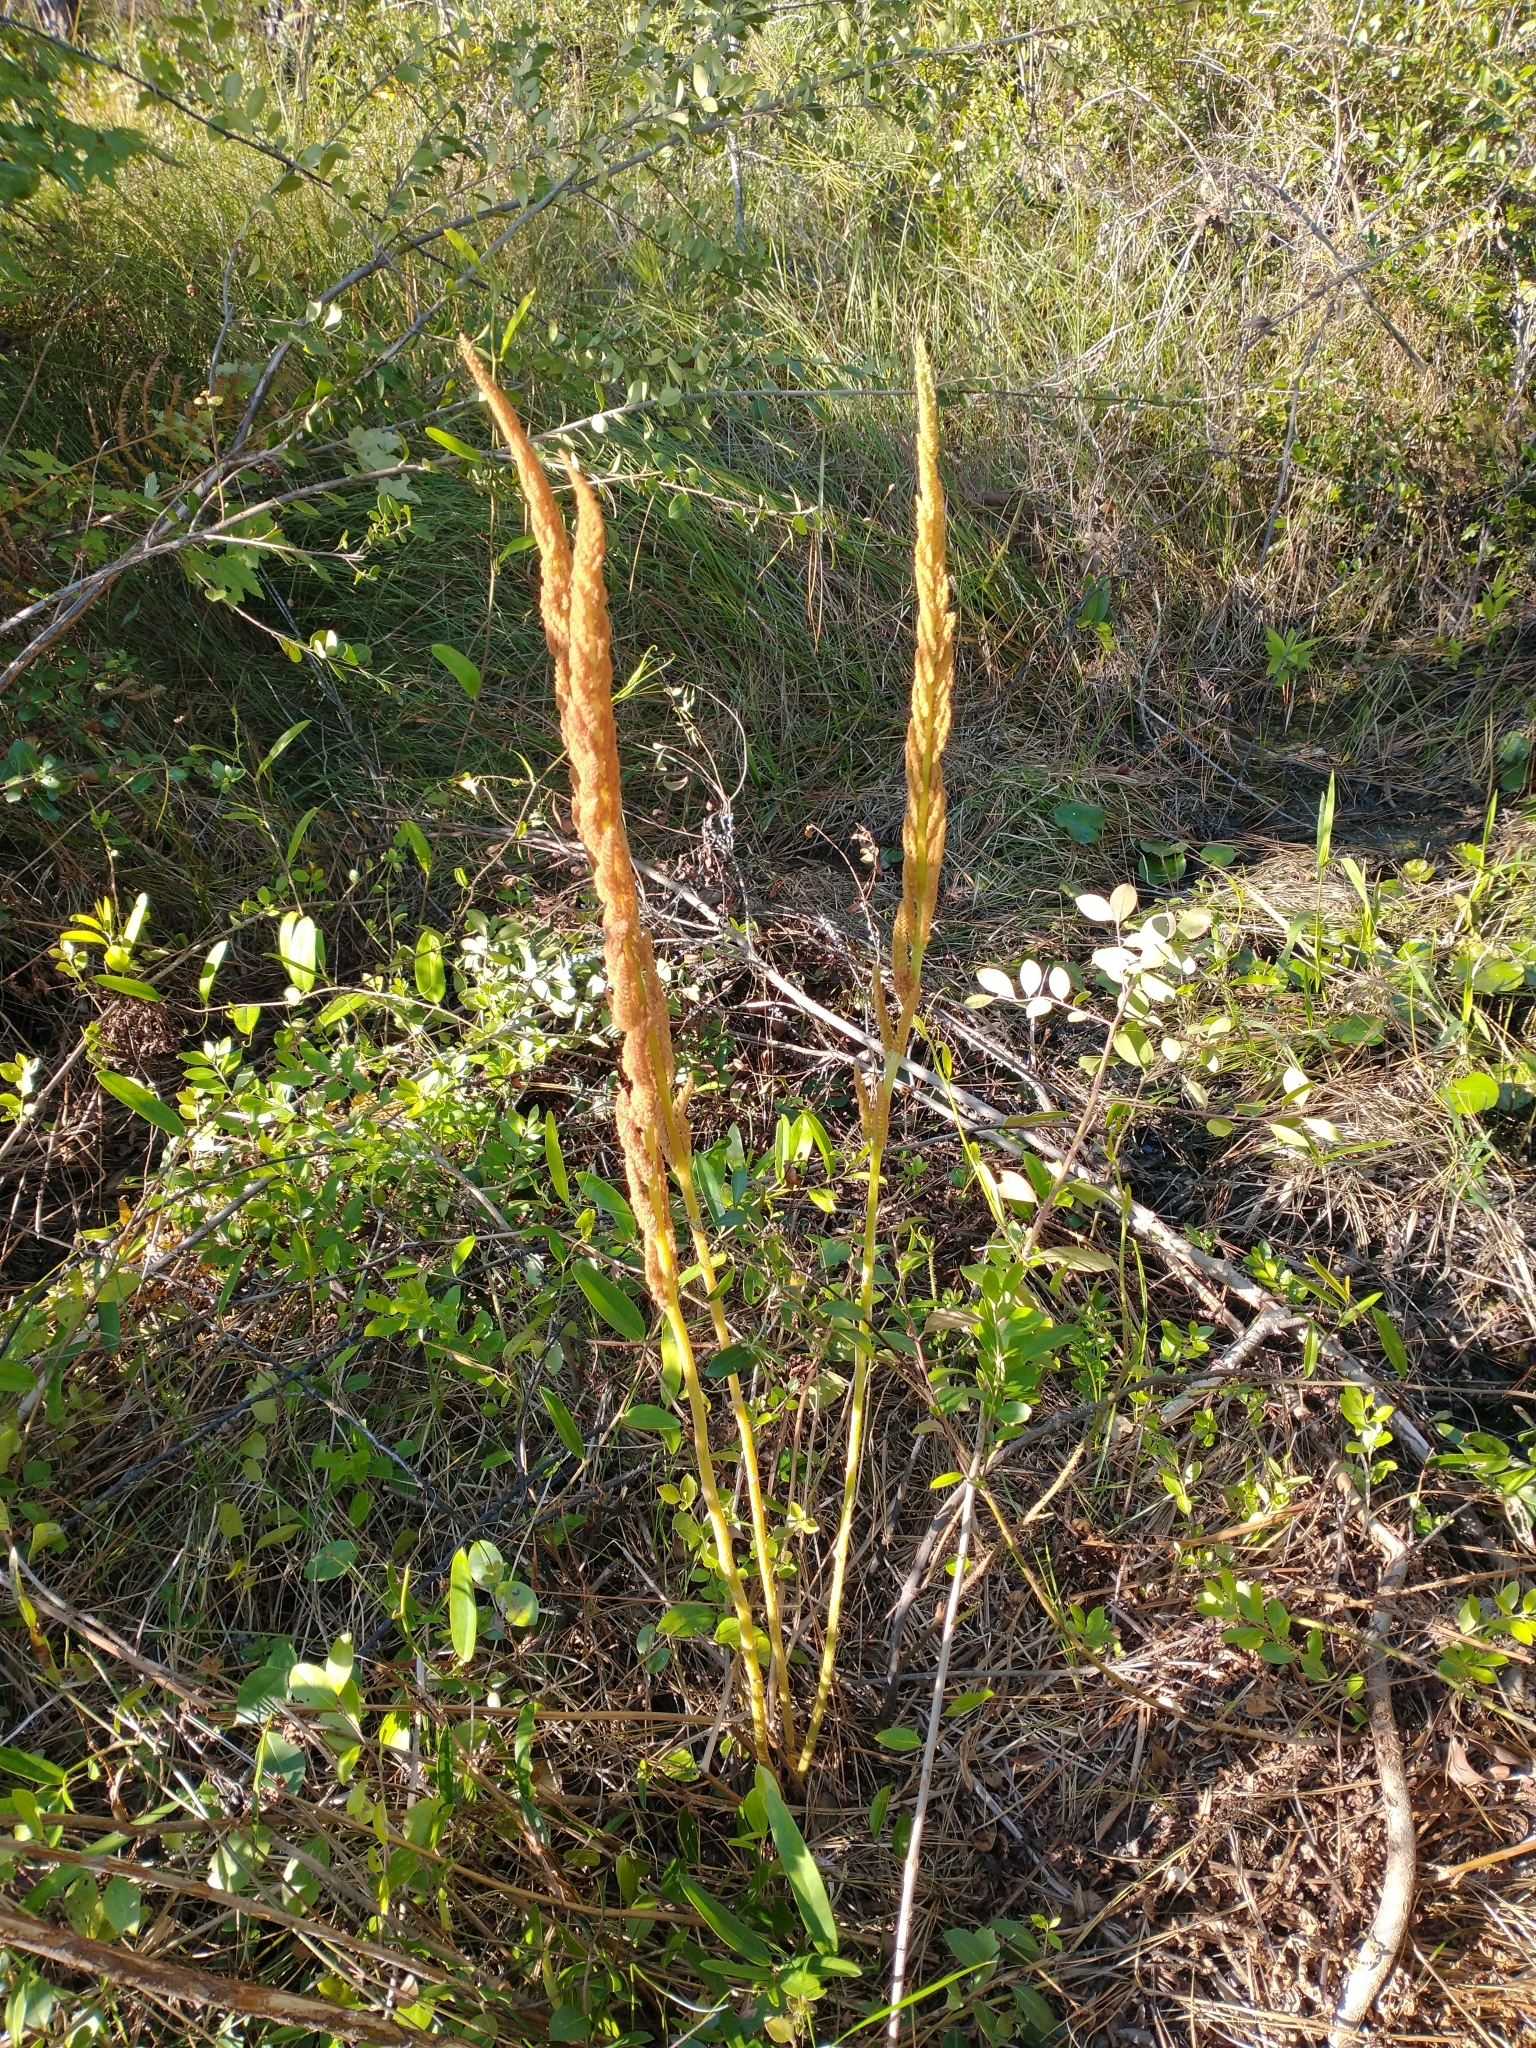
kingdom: Plantae
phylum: Tracheophyta
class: Polypodiopsida
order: Osmundales
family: Osmundaceae
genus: Osmundastrum
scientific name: Osmundastrum cinnamomeum
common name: Cinnamon fern
